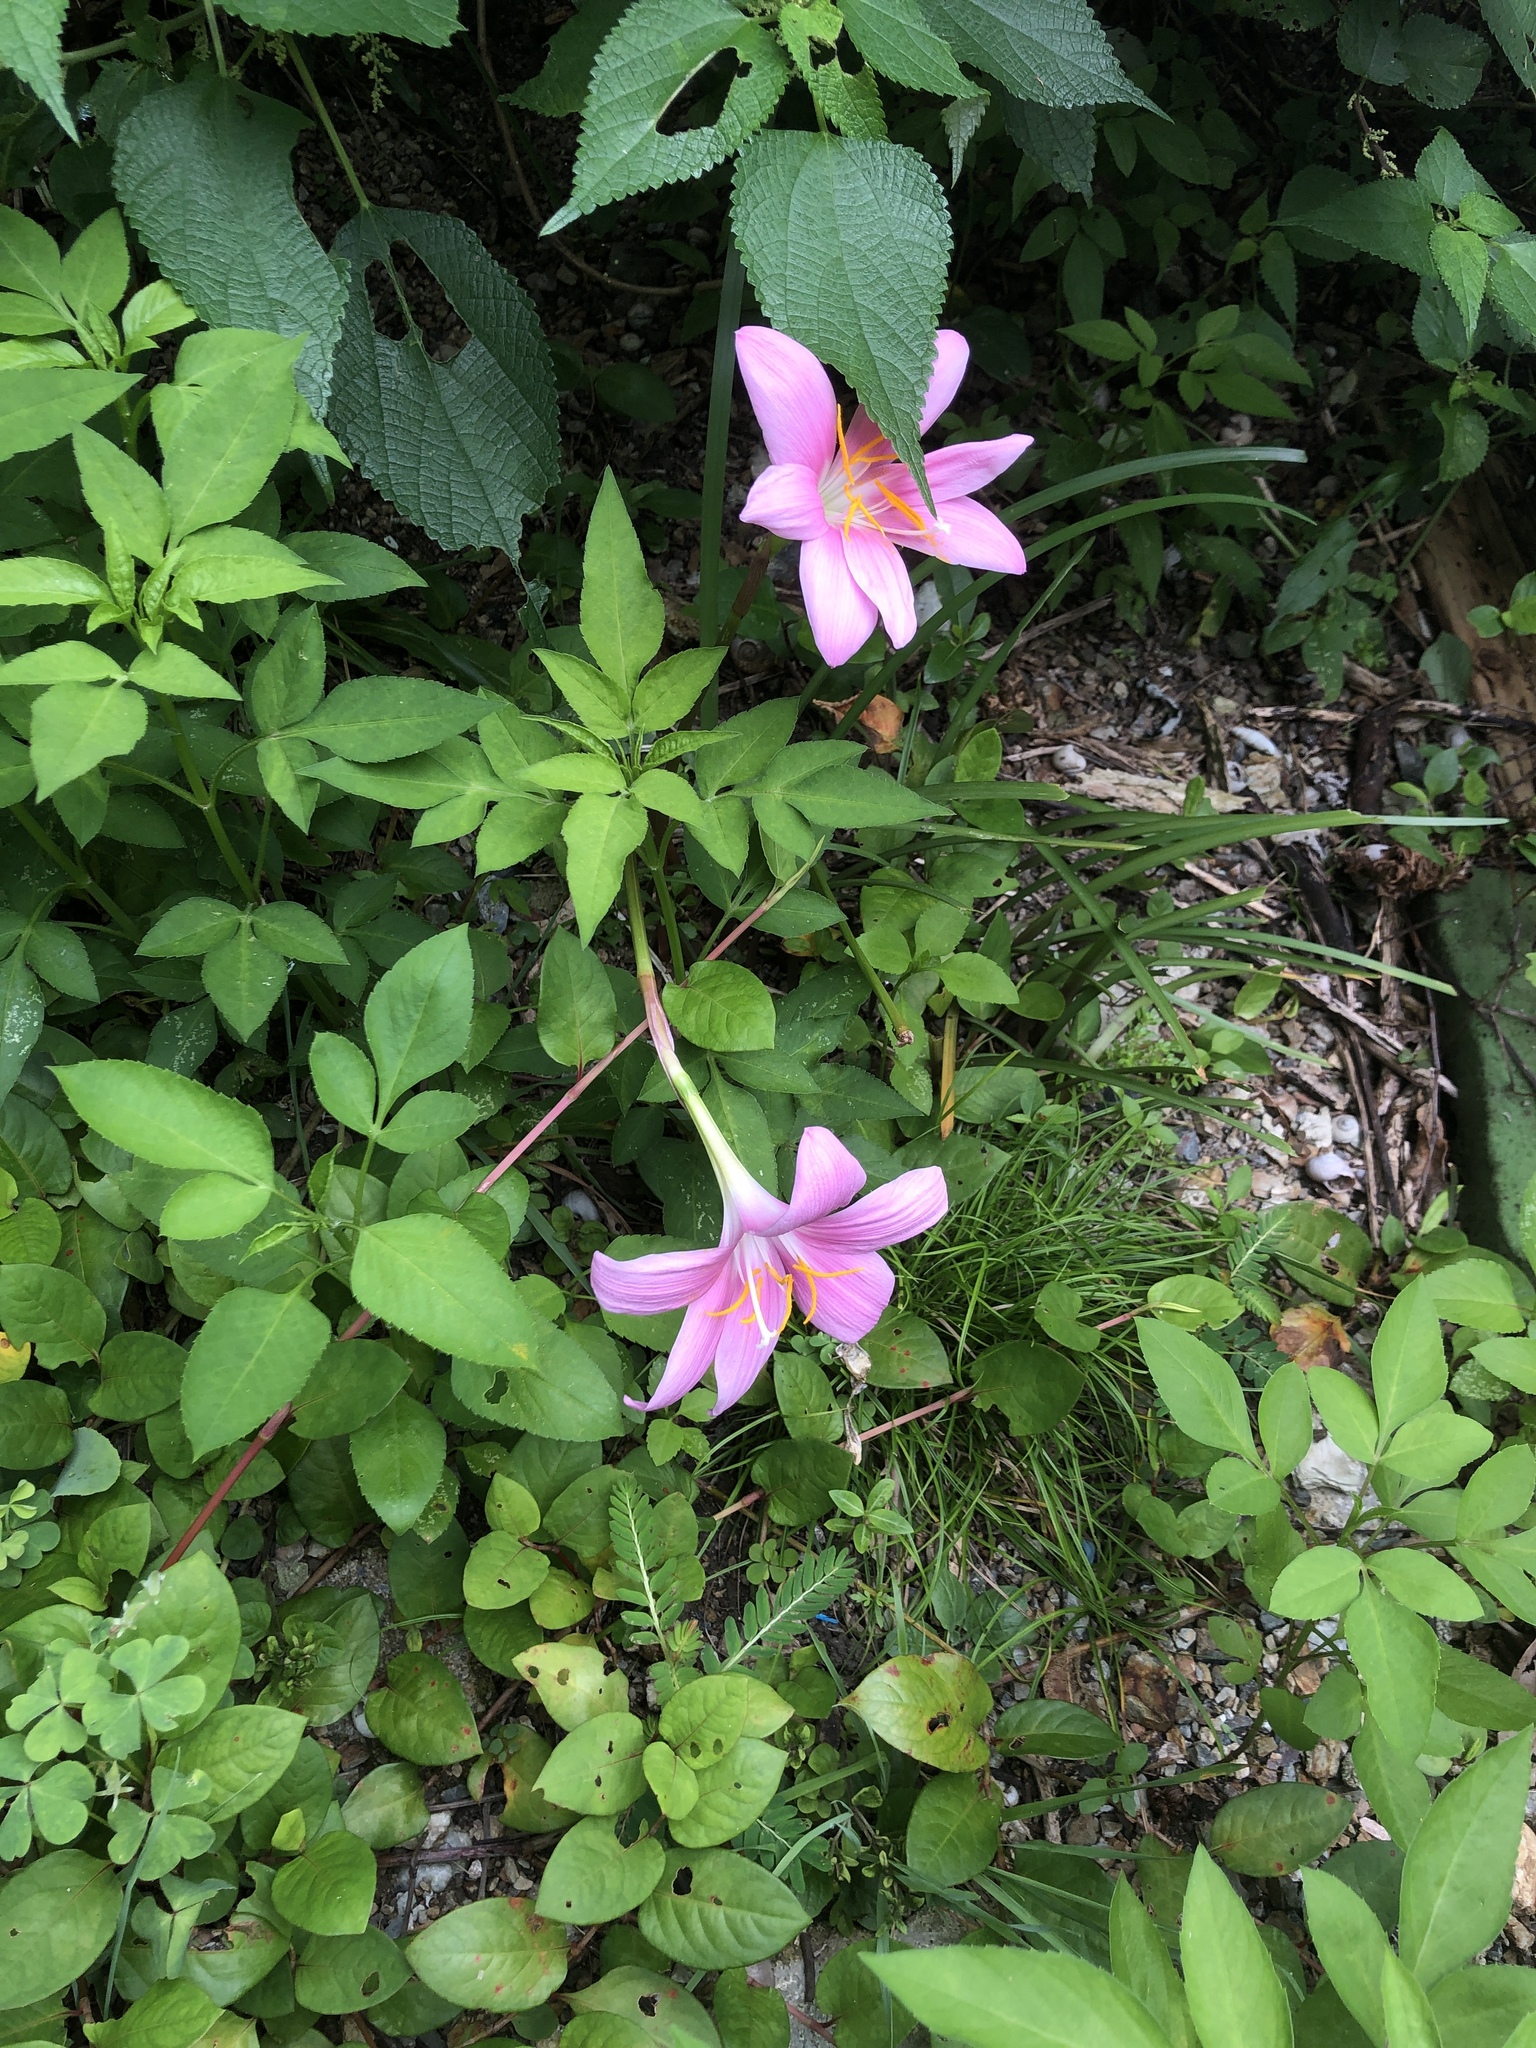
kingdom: Plantae
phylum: Tracheophyta
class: Liliopsida
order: Asparagales
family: Amaryllidaceae
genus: Zephyranthes
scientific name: Zephyranthes carinata
